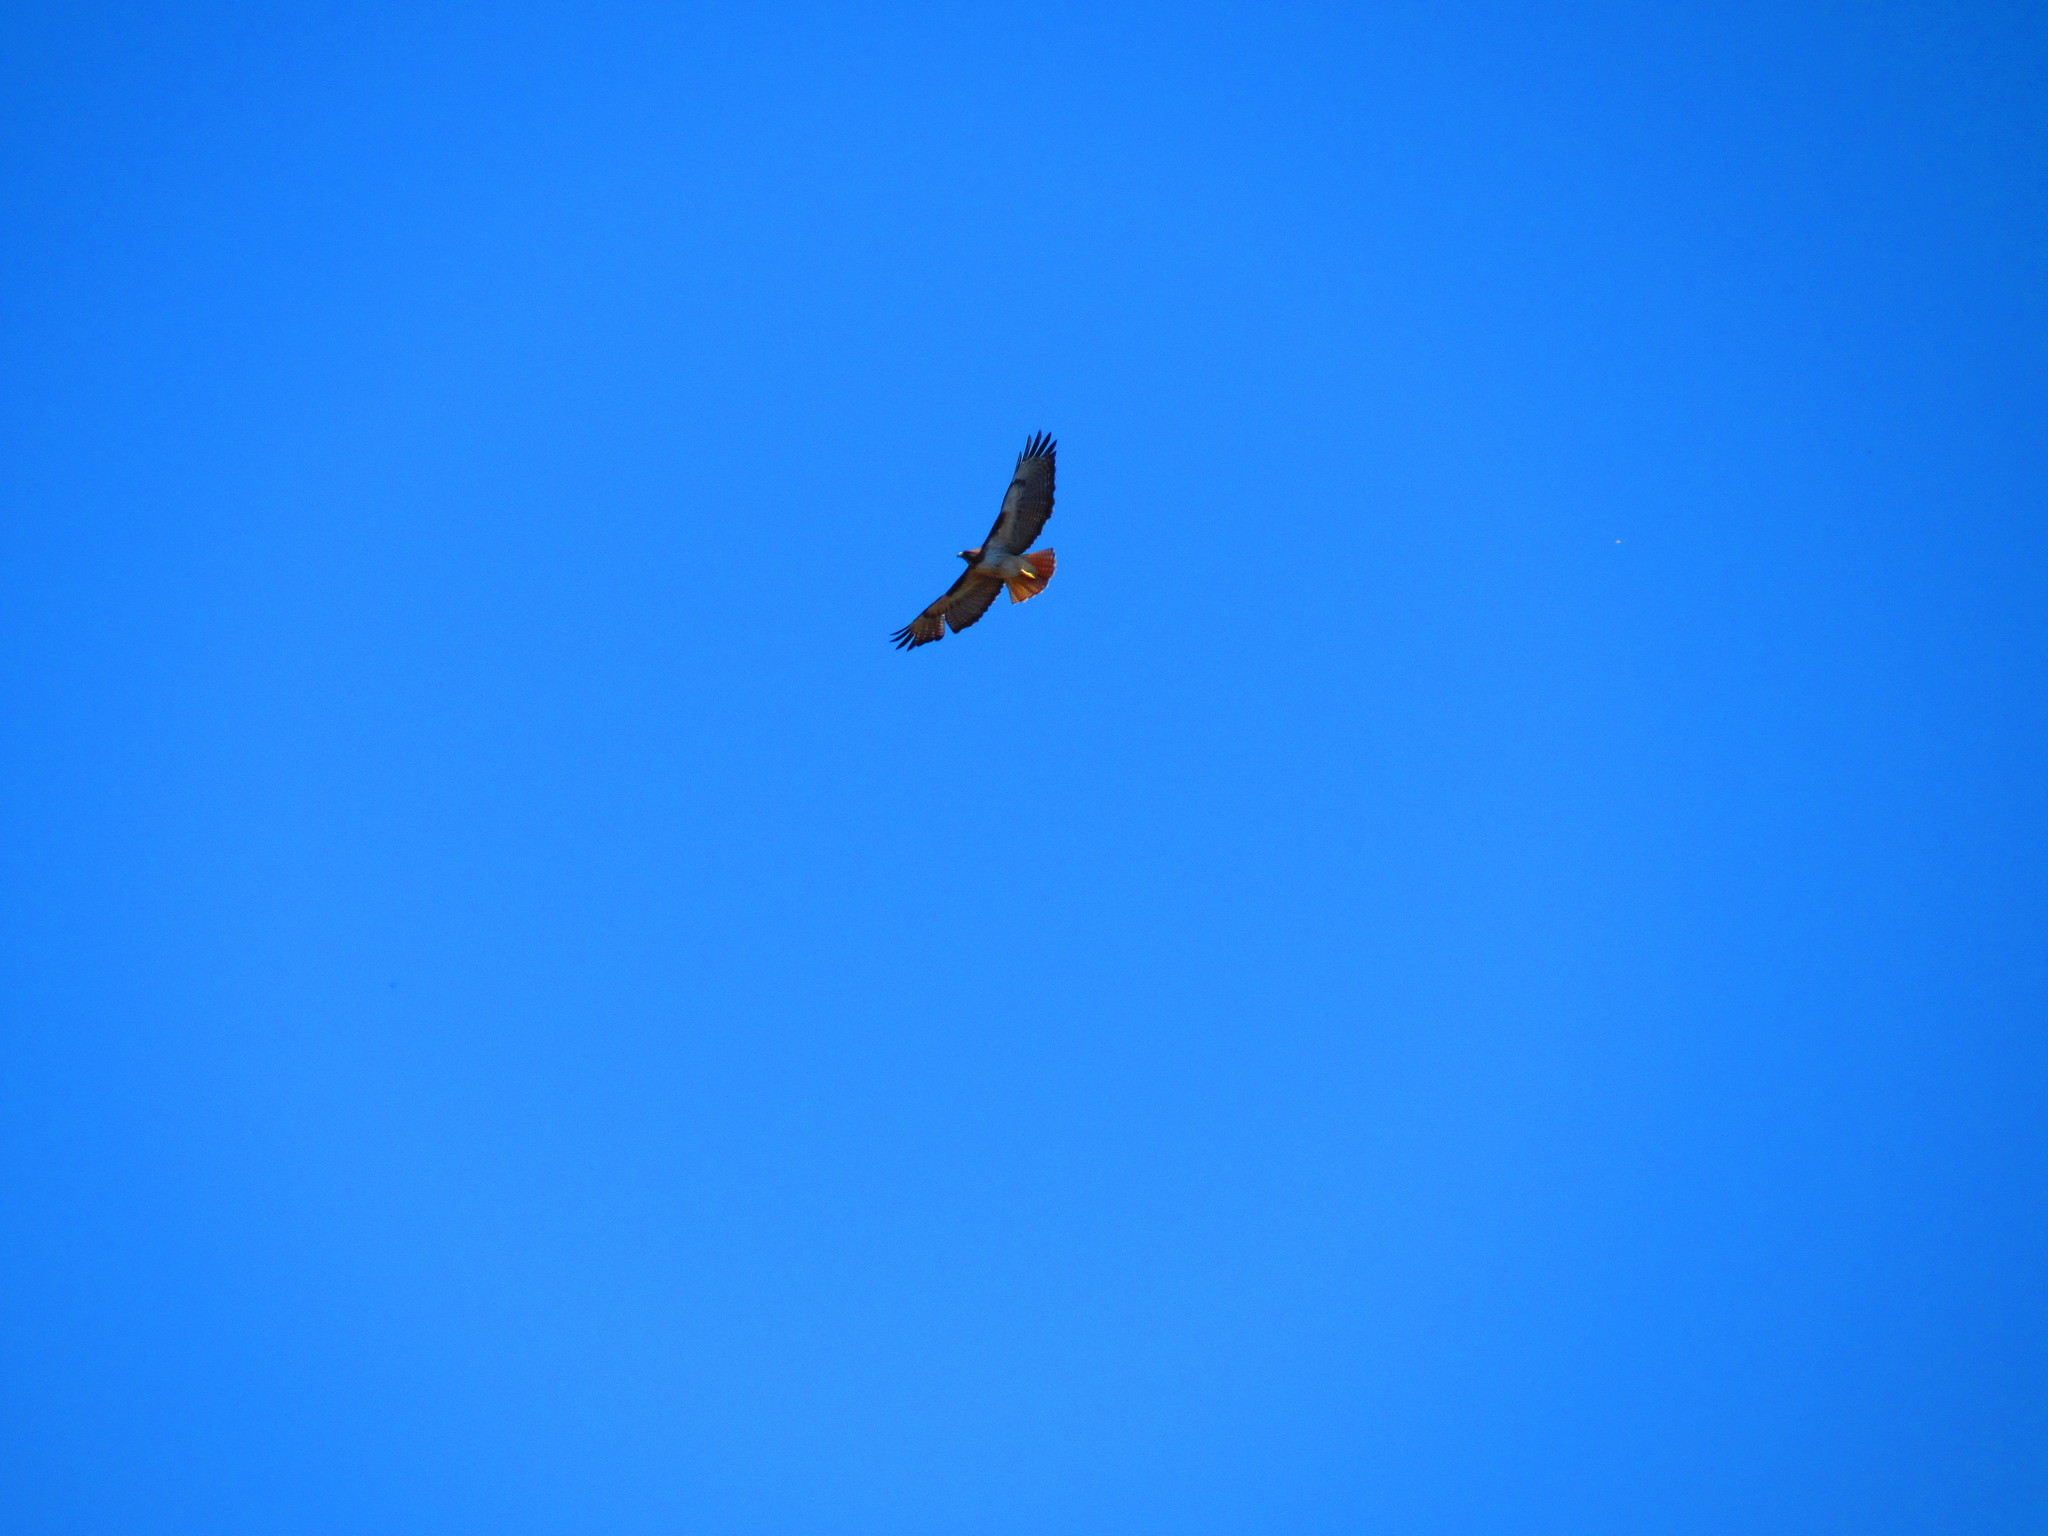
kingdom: Animalia
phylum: Chordata
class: Aves
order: Accipitriformes
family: Accipitridae
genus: Buteo
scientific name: Buteo jamaicensis
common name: Red-tailed hawk
